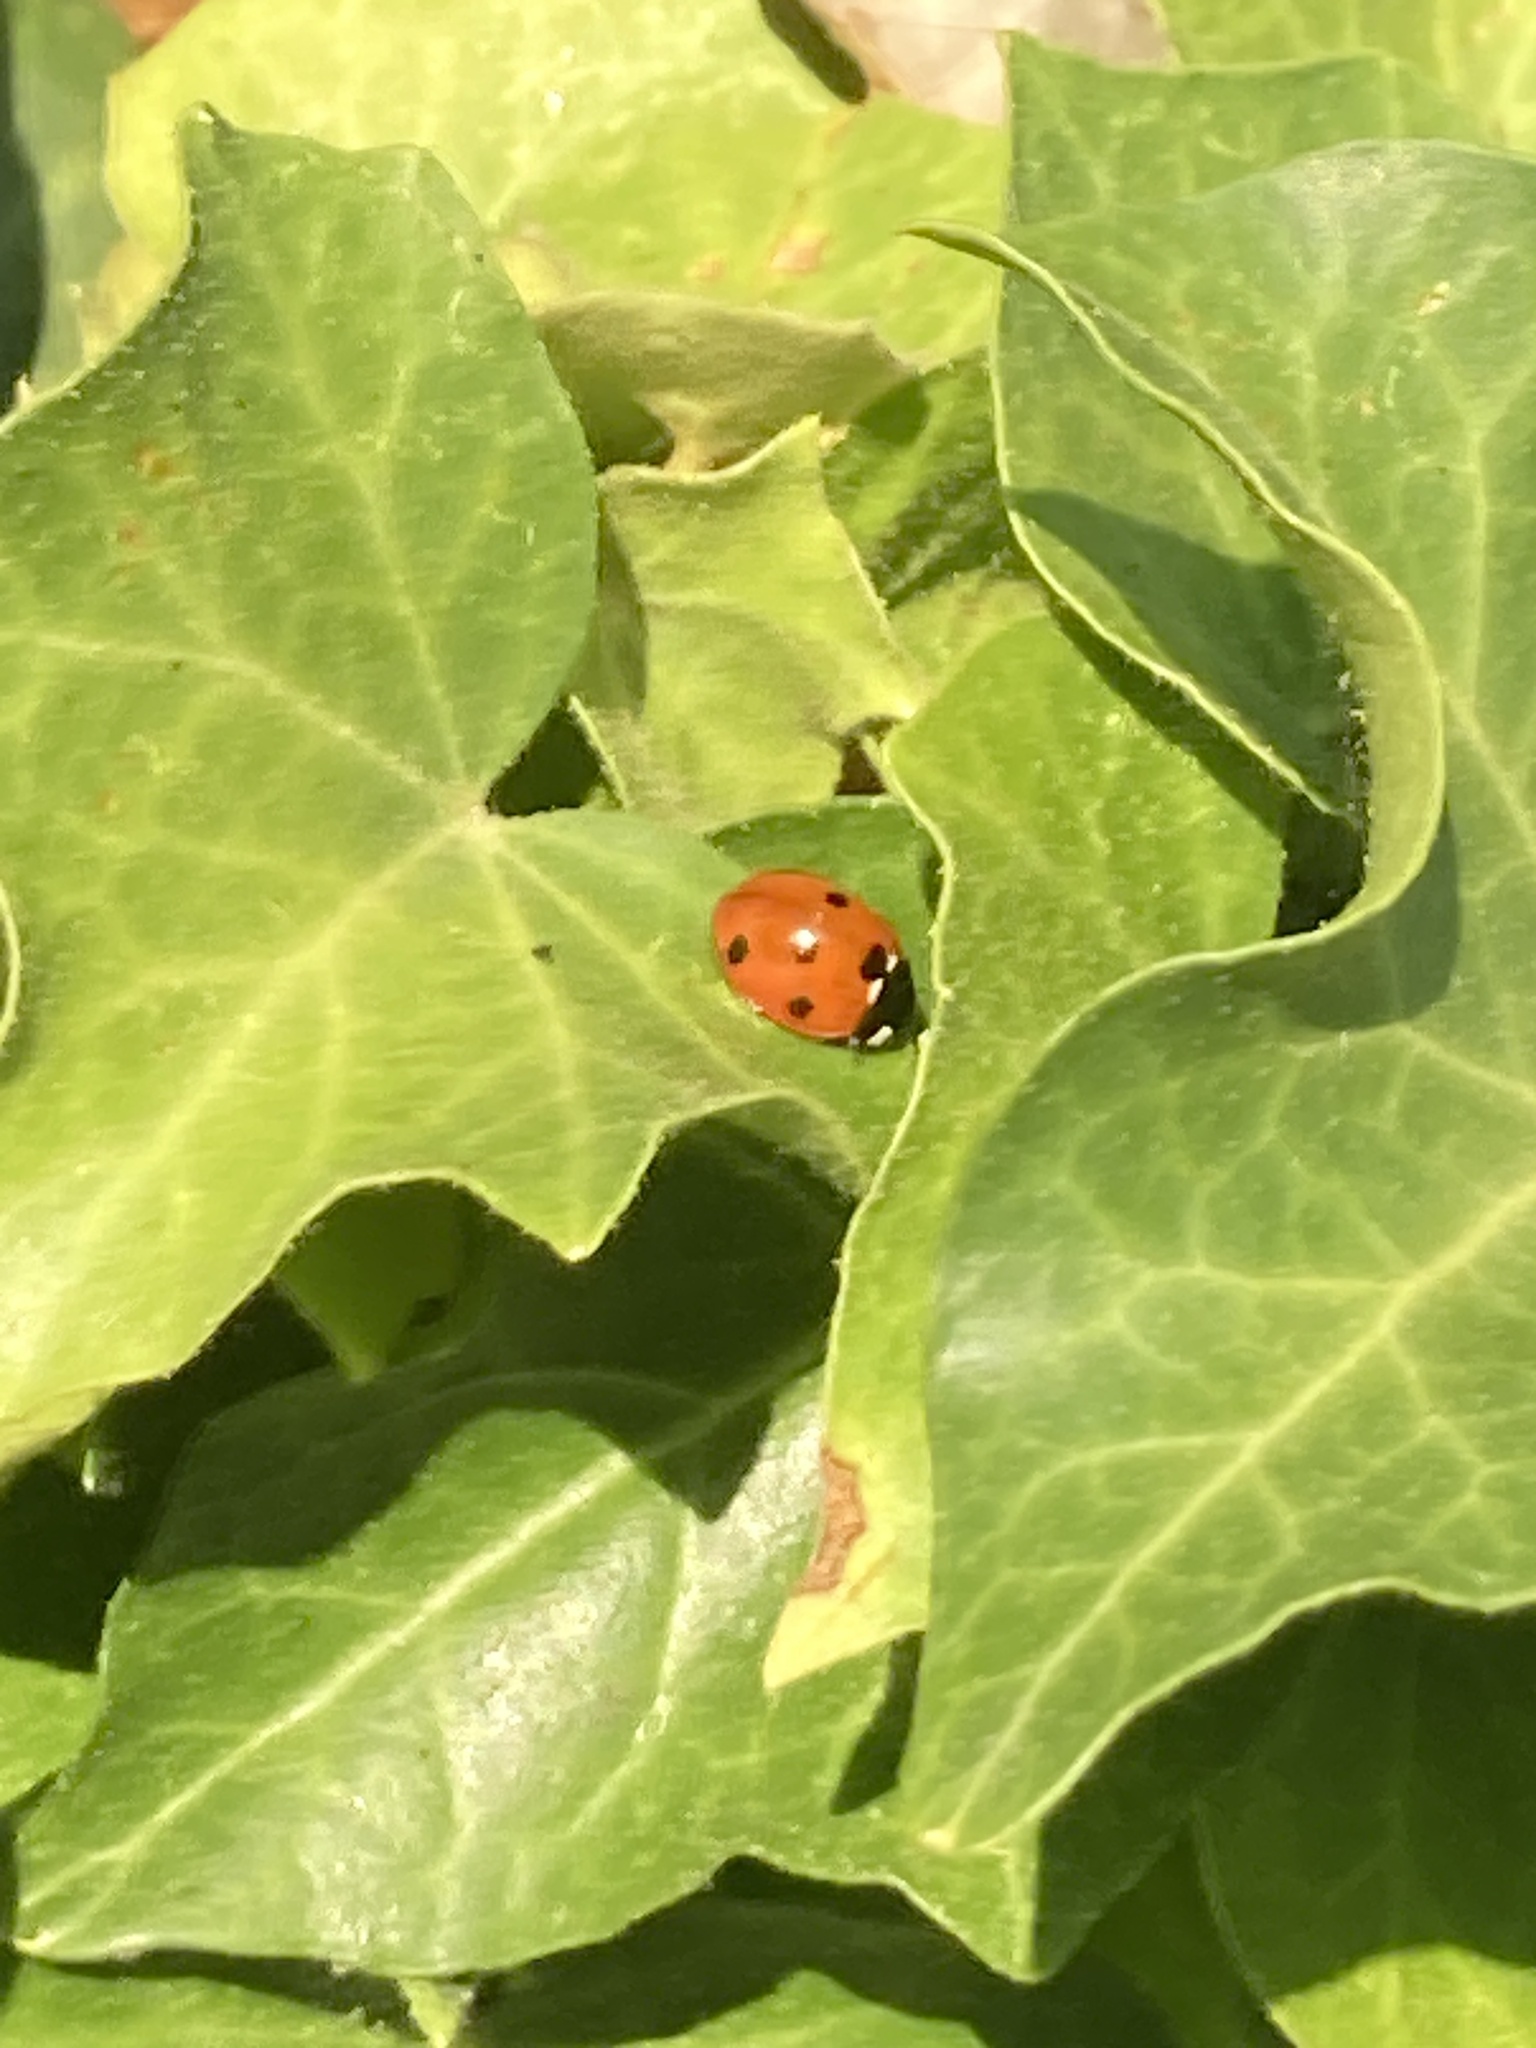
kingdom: Animalia
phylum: Arthropoda
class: Insecta
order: Coleoptera
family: Coccinellidae
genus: Coccinella
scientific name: Coccinella septempunctata
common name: Sevenspotted lady beetle
